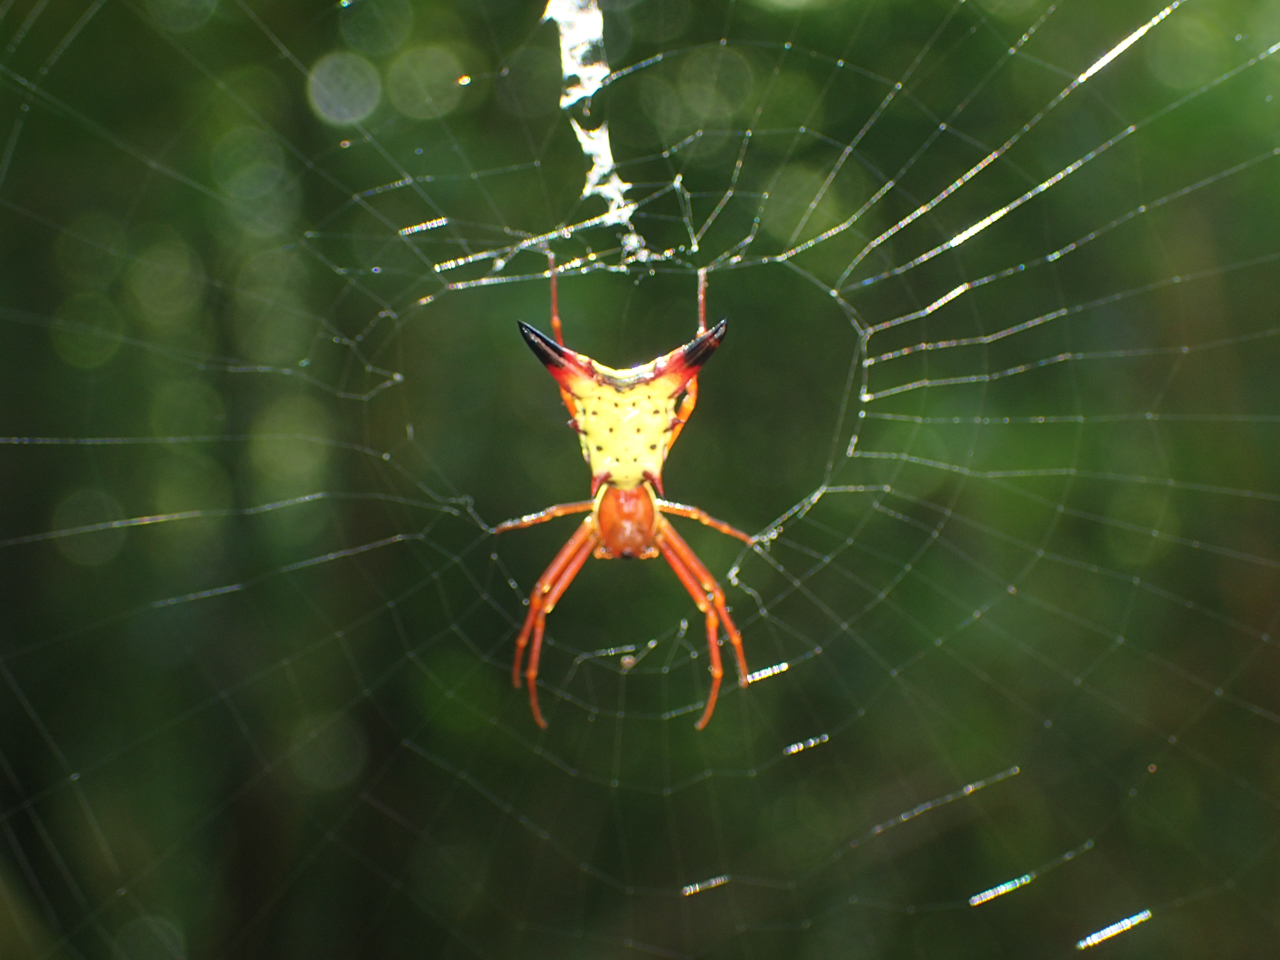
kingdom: Animalia
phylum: Arthropoda
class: Arachnida
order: Araneae
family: Araneidae
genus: Micrathena
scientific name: Micrathena sagittata
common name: Orb weavers
